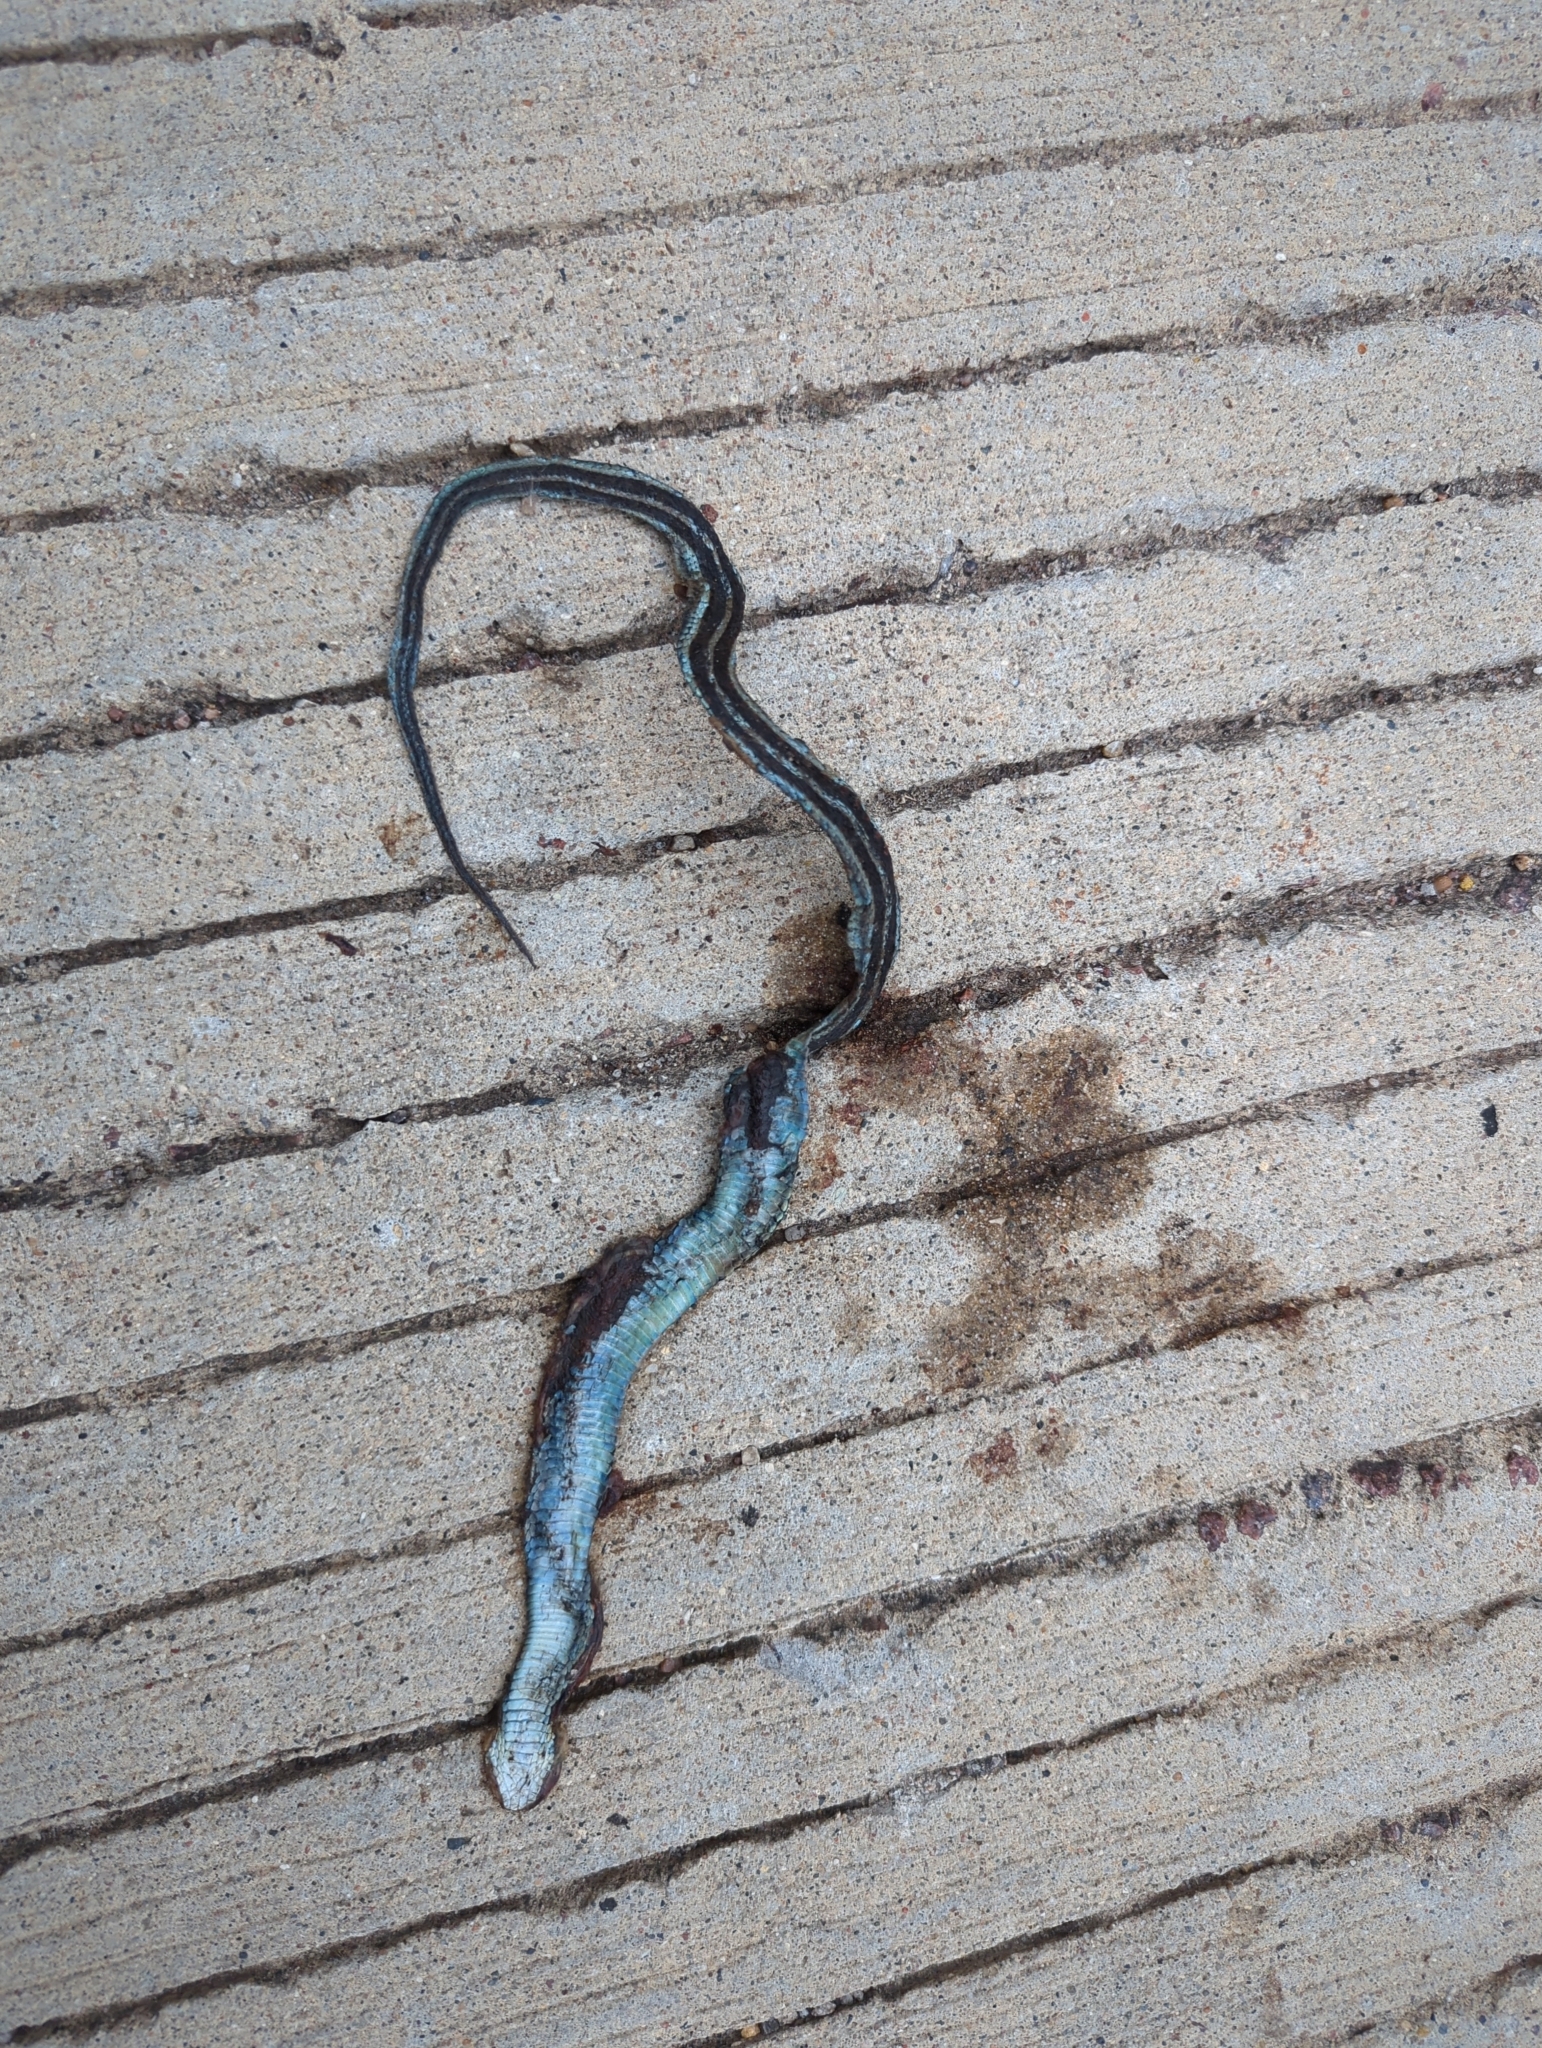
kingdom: Animalia
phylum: Chordata
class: Squamata
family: Colubridae
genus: Thamnophis
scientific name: Thamnophis sirtalis
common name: Common garter snake
